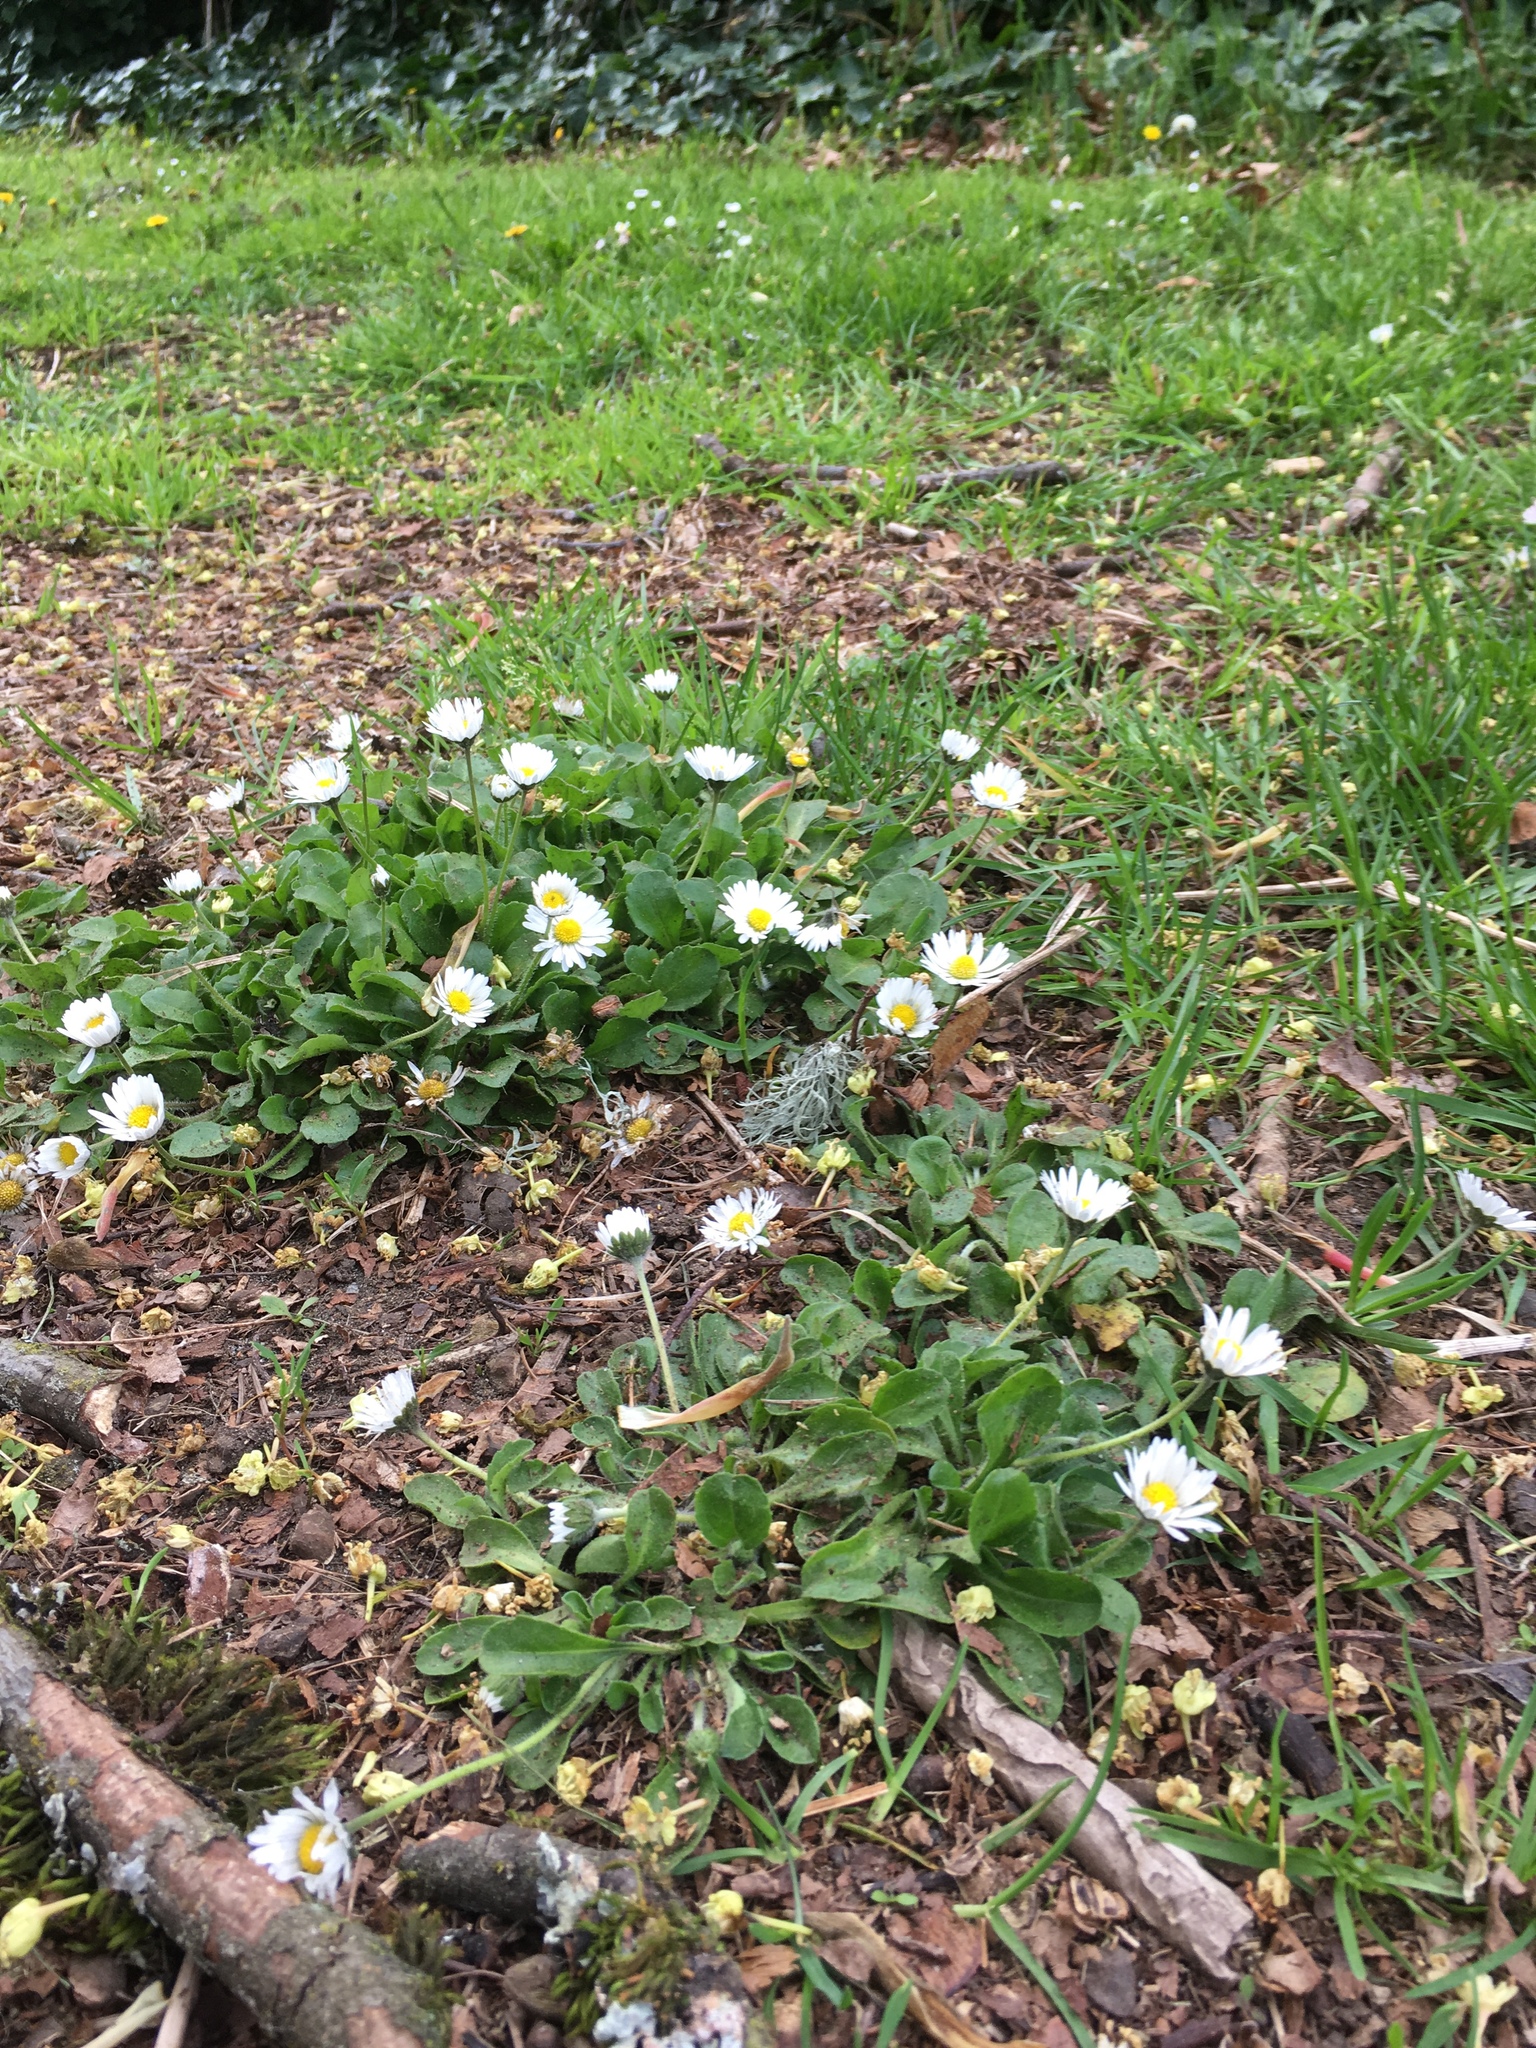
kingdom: Plantae
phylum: Tracheophyta
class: Magnoliopsida
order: Asterales
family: Asteraceae
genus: Bellis
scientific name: Bellis perennis
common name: Lawndaisy
